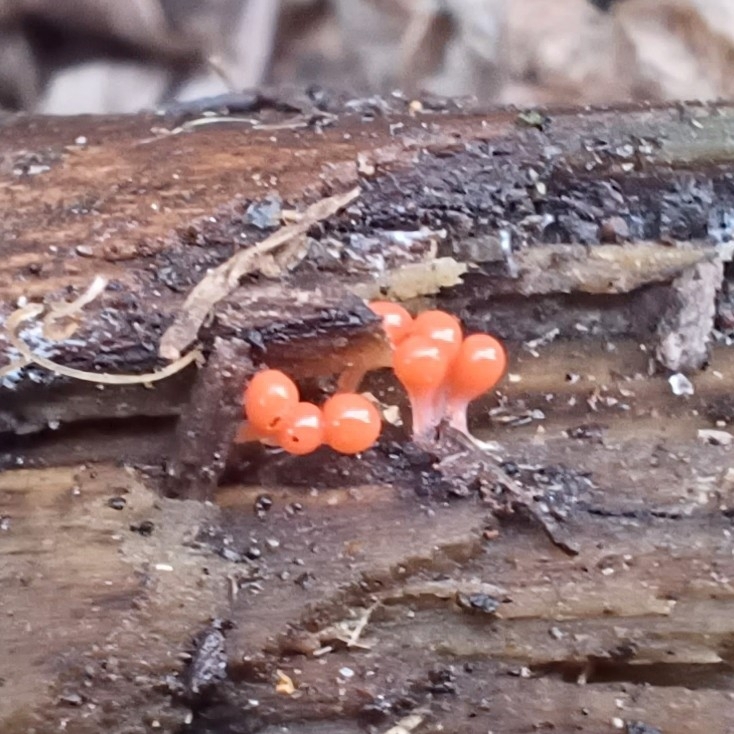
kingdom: Protozoa
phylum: Mycetozoa
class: Myxomycetes
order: Trichiales
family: Arcyriaceae
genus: Hemitrichia
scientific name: Hemitrichia decipiens
